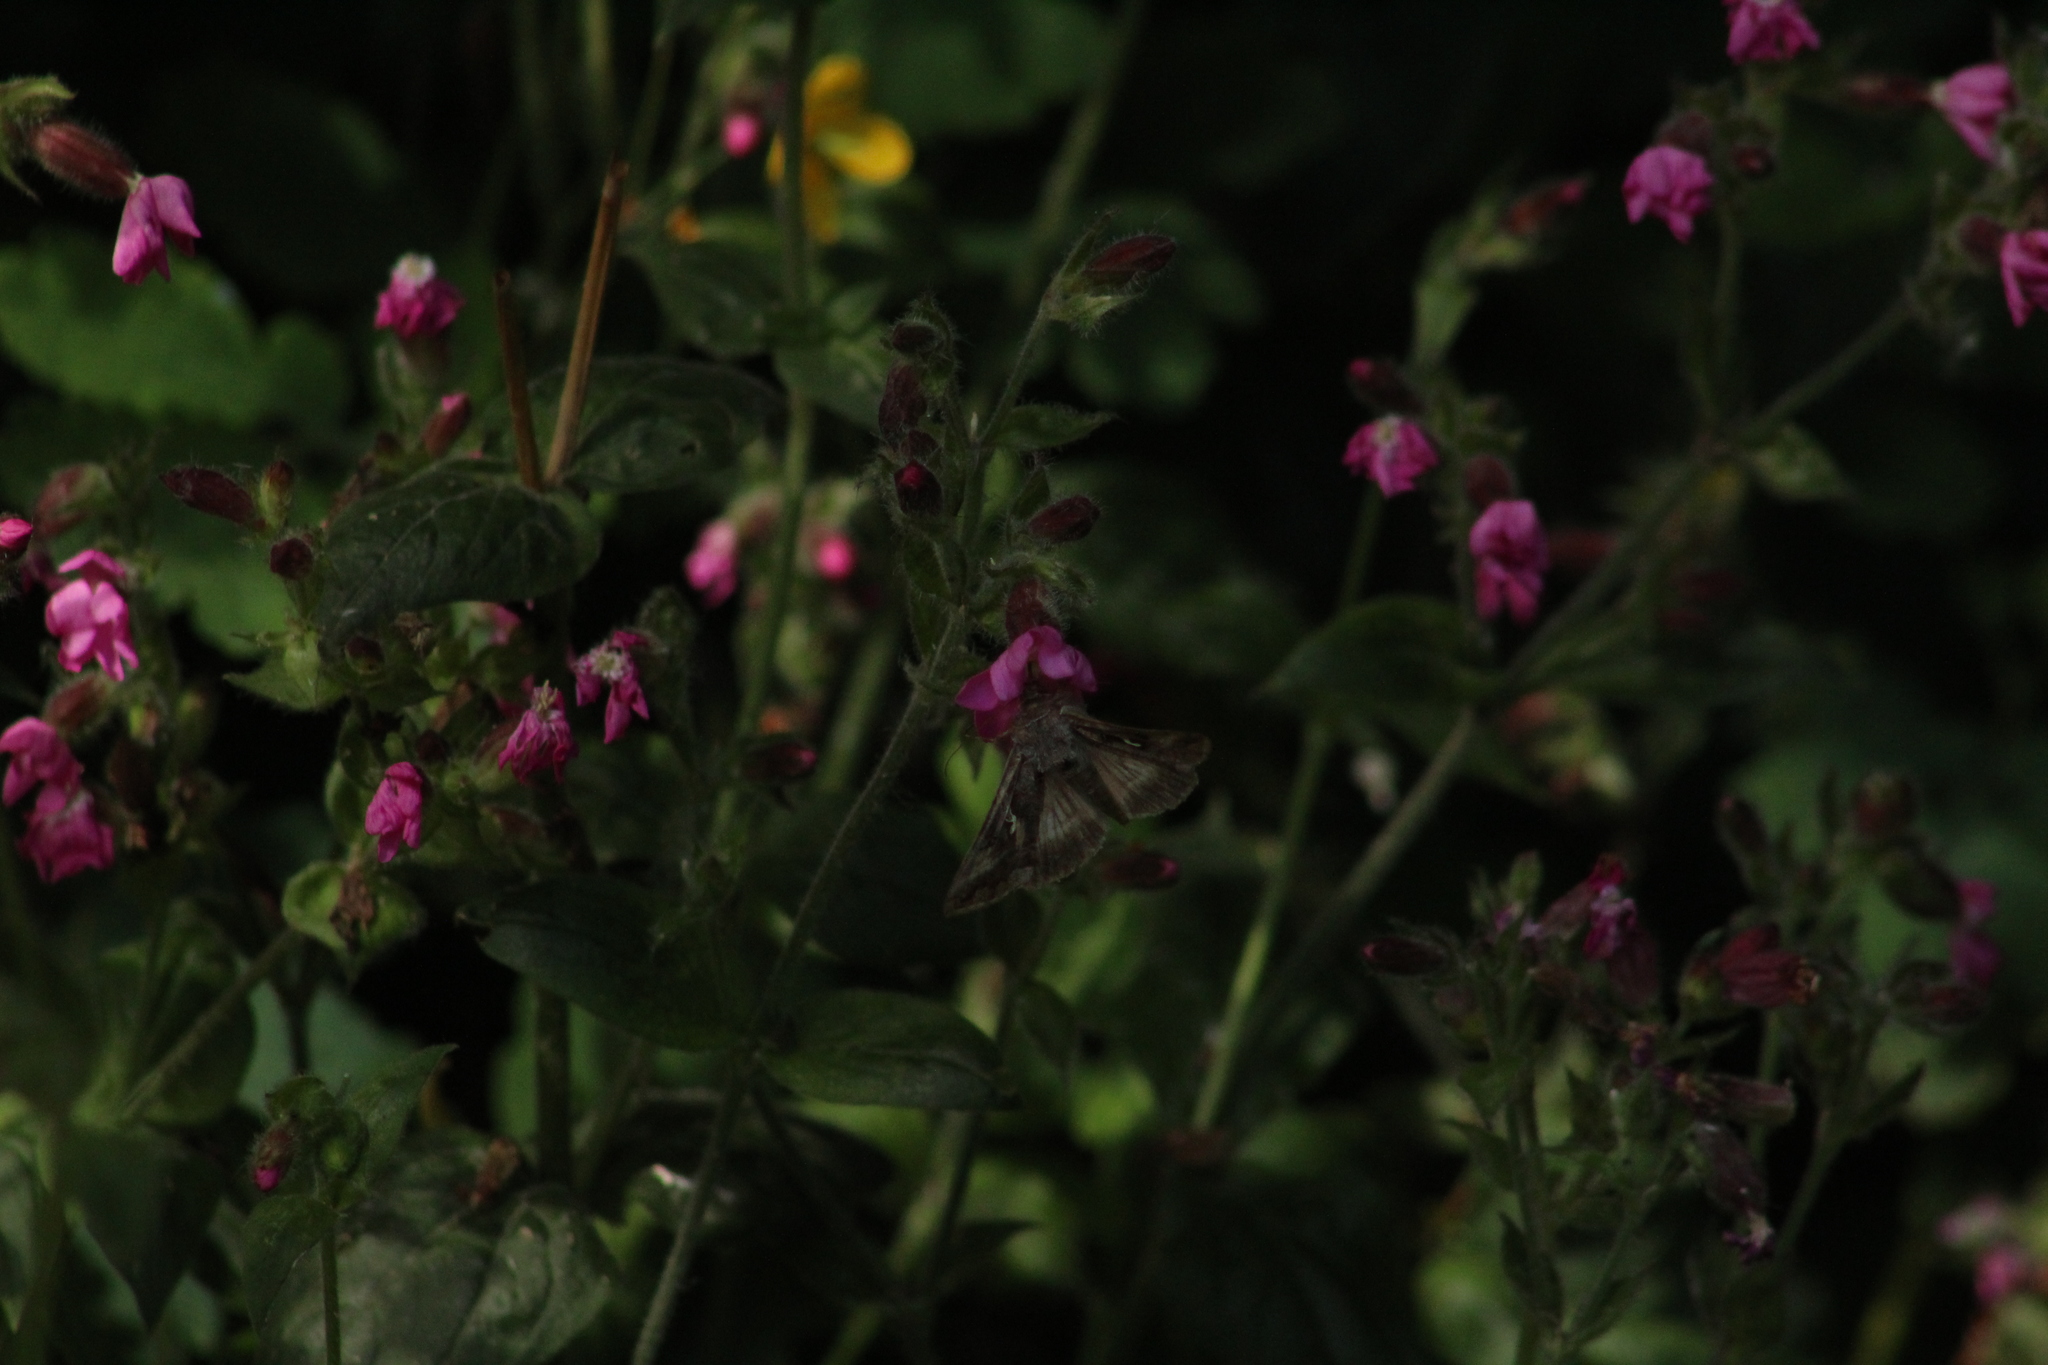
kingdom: Animalia
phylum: Arthropoda
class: Insecta
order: Lepidoptera
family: Noctuidae
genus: Autographa
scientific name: Autographa gamma
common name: Silver y
